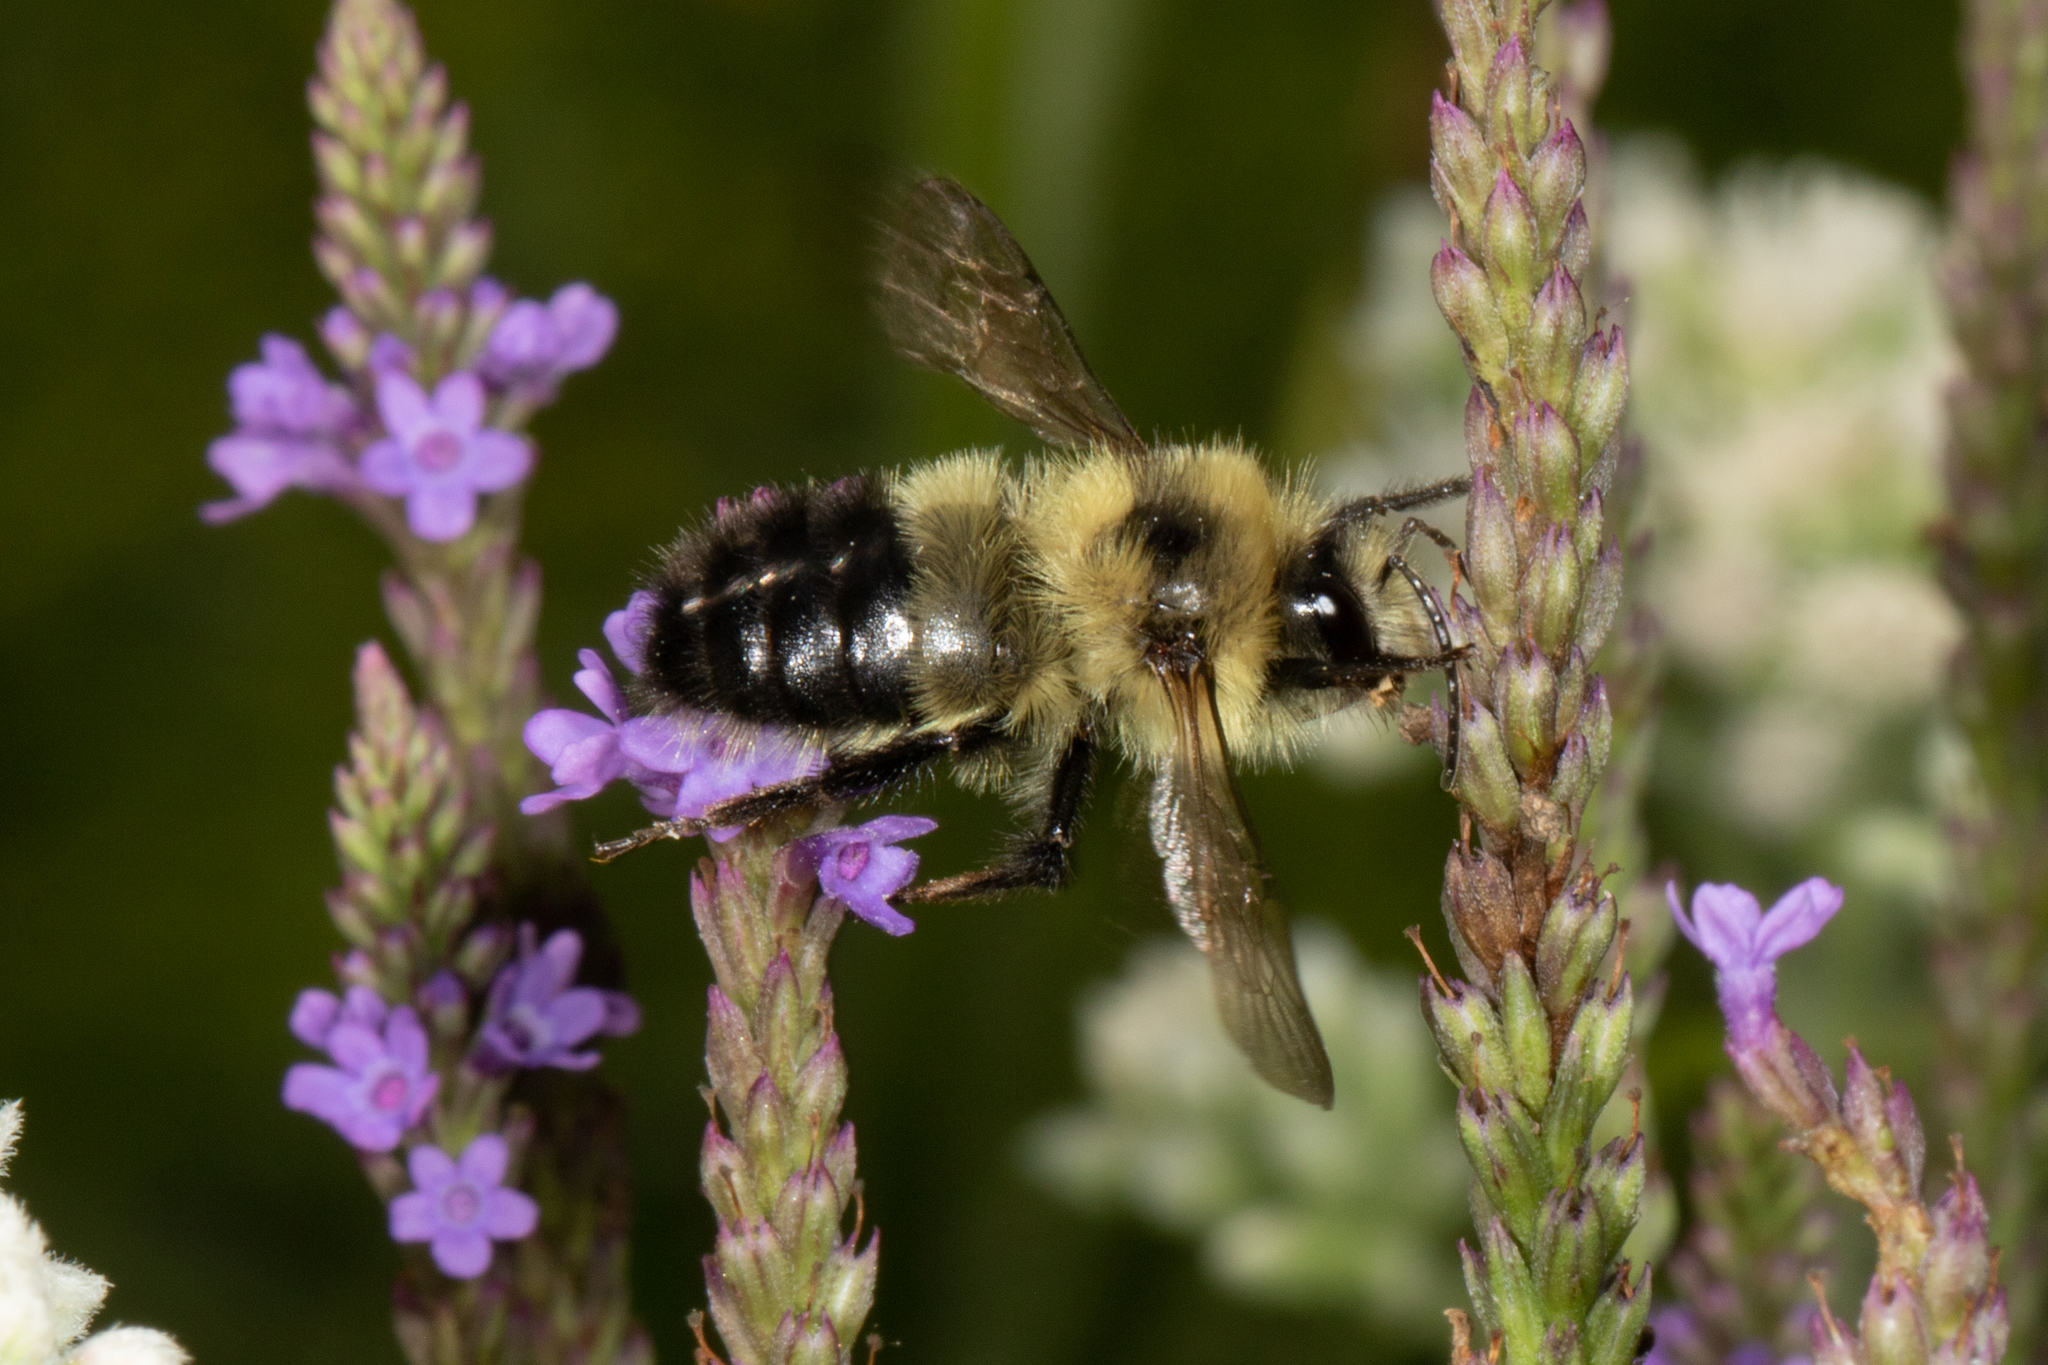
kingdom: Animalia
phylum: Arthropoda
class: Insecta
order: Hymenoptera
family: Apidae
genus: Pyrobombus
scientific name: Pyrobombus
